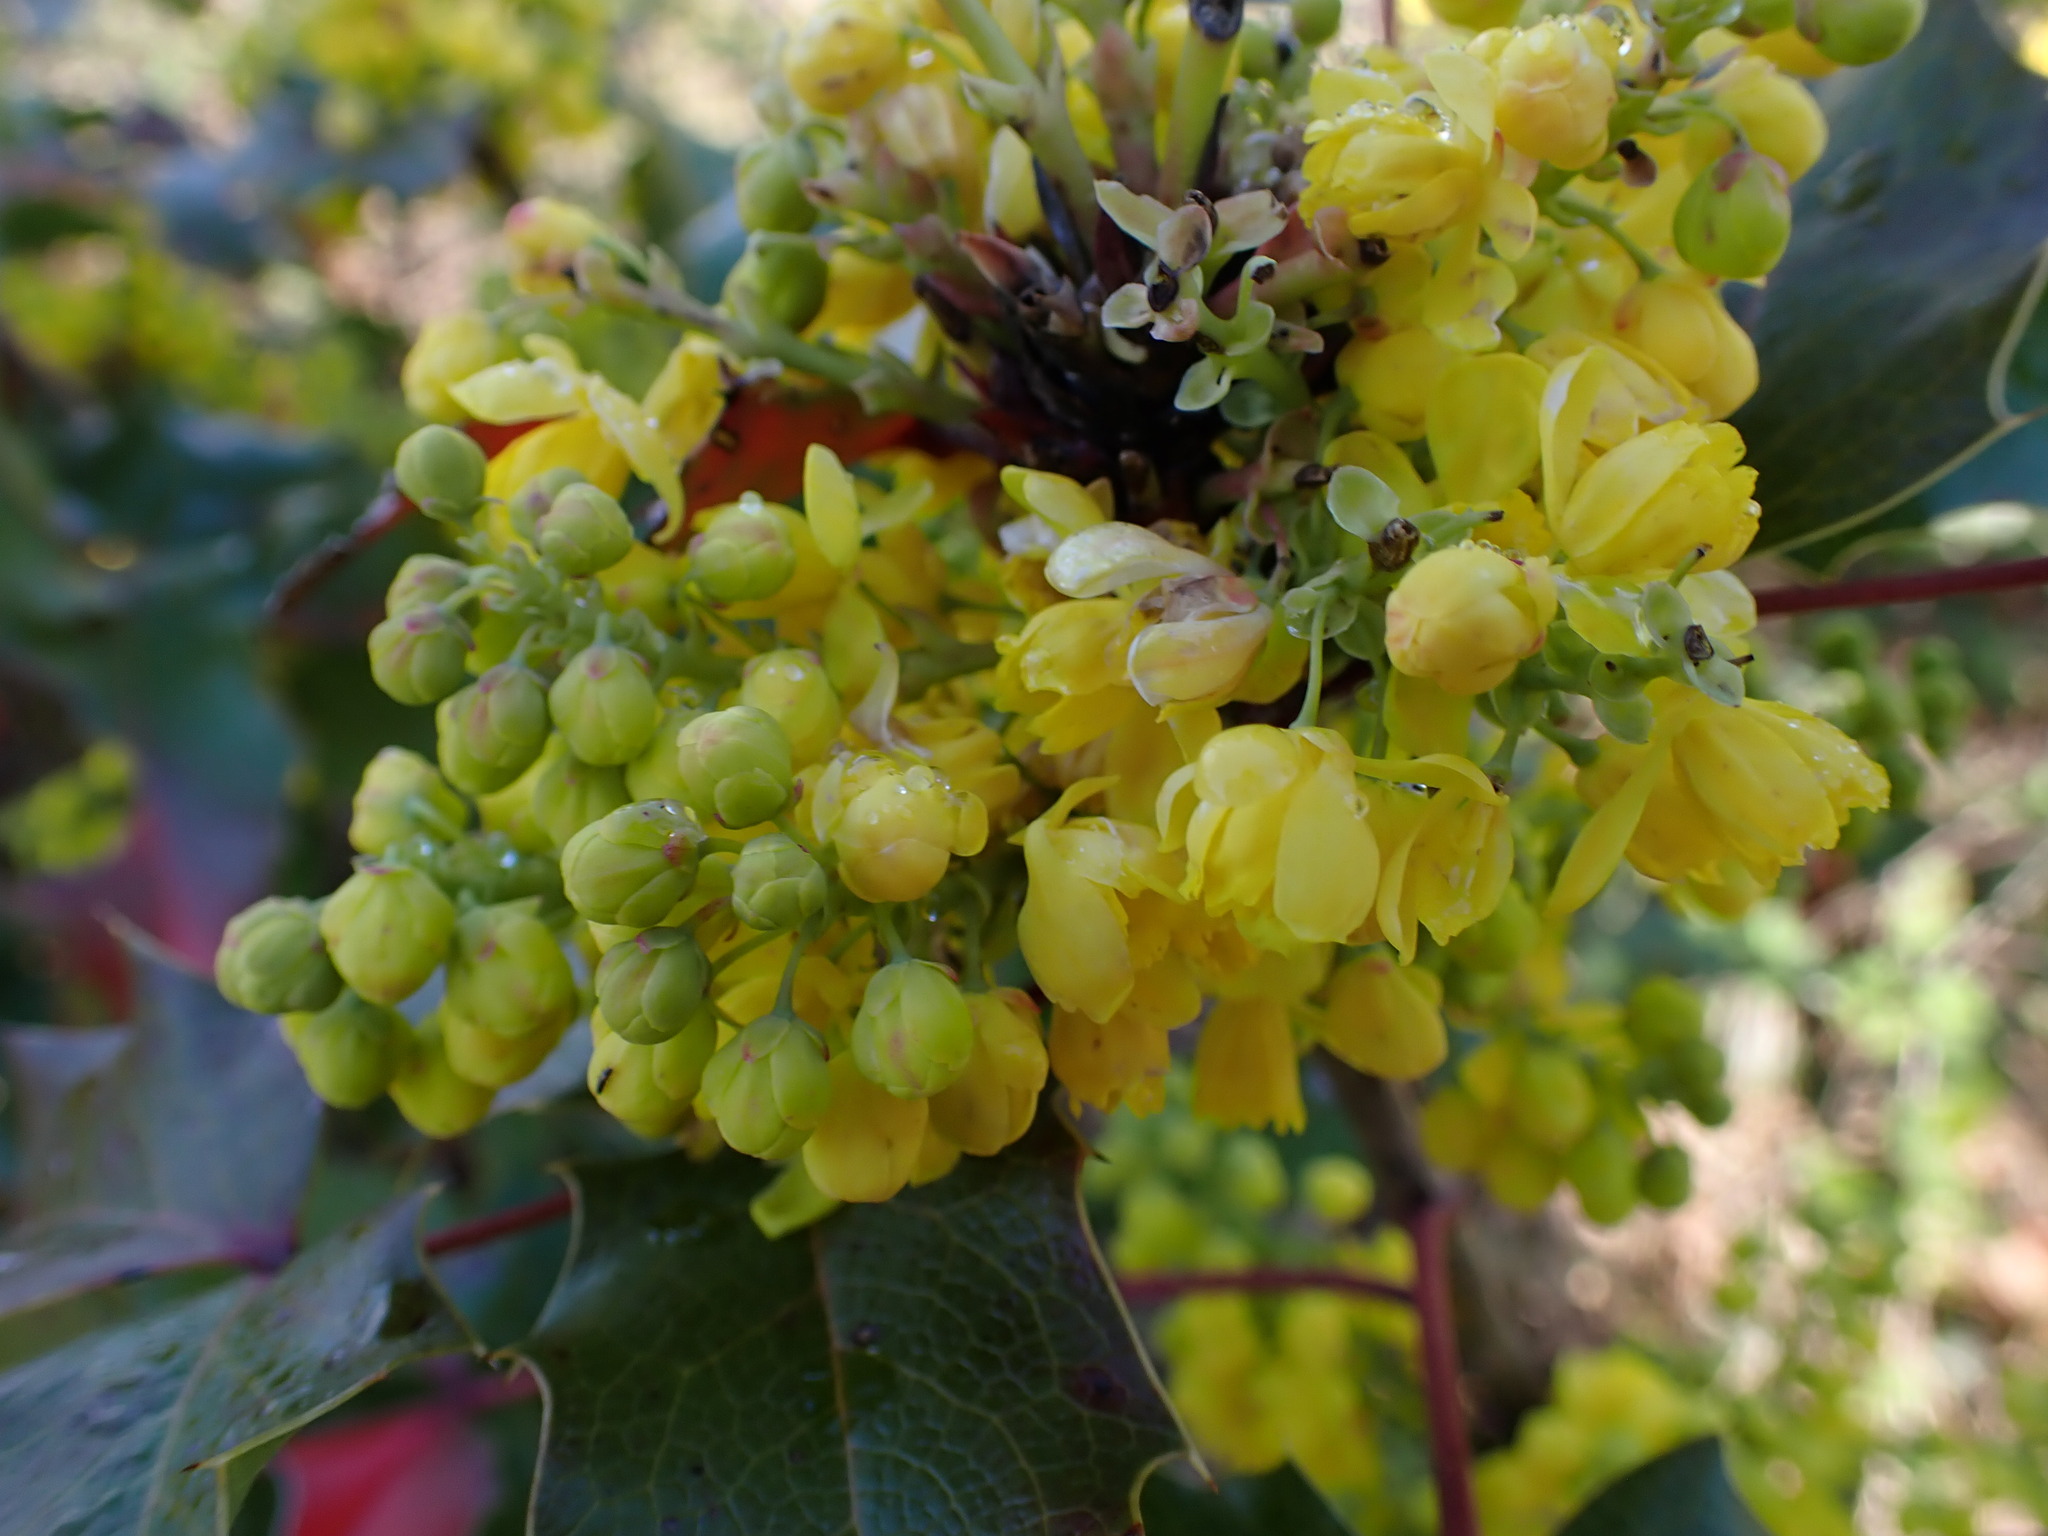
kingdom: Plantae
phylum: Tracheophyta
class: Magnoliopsida
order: Ranunculales
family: Berberidaceae
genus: Mahonia
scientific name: Mahonia aquifolium
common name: Oregon-grape
